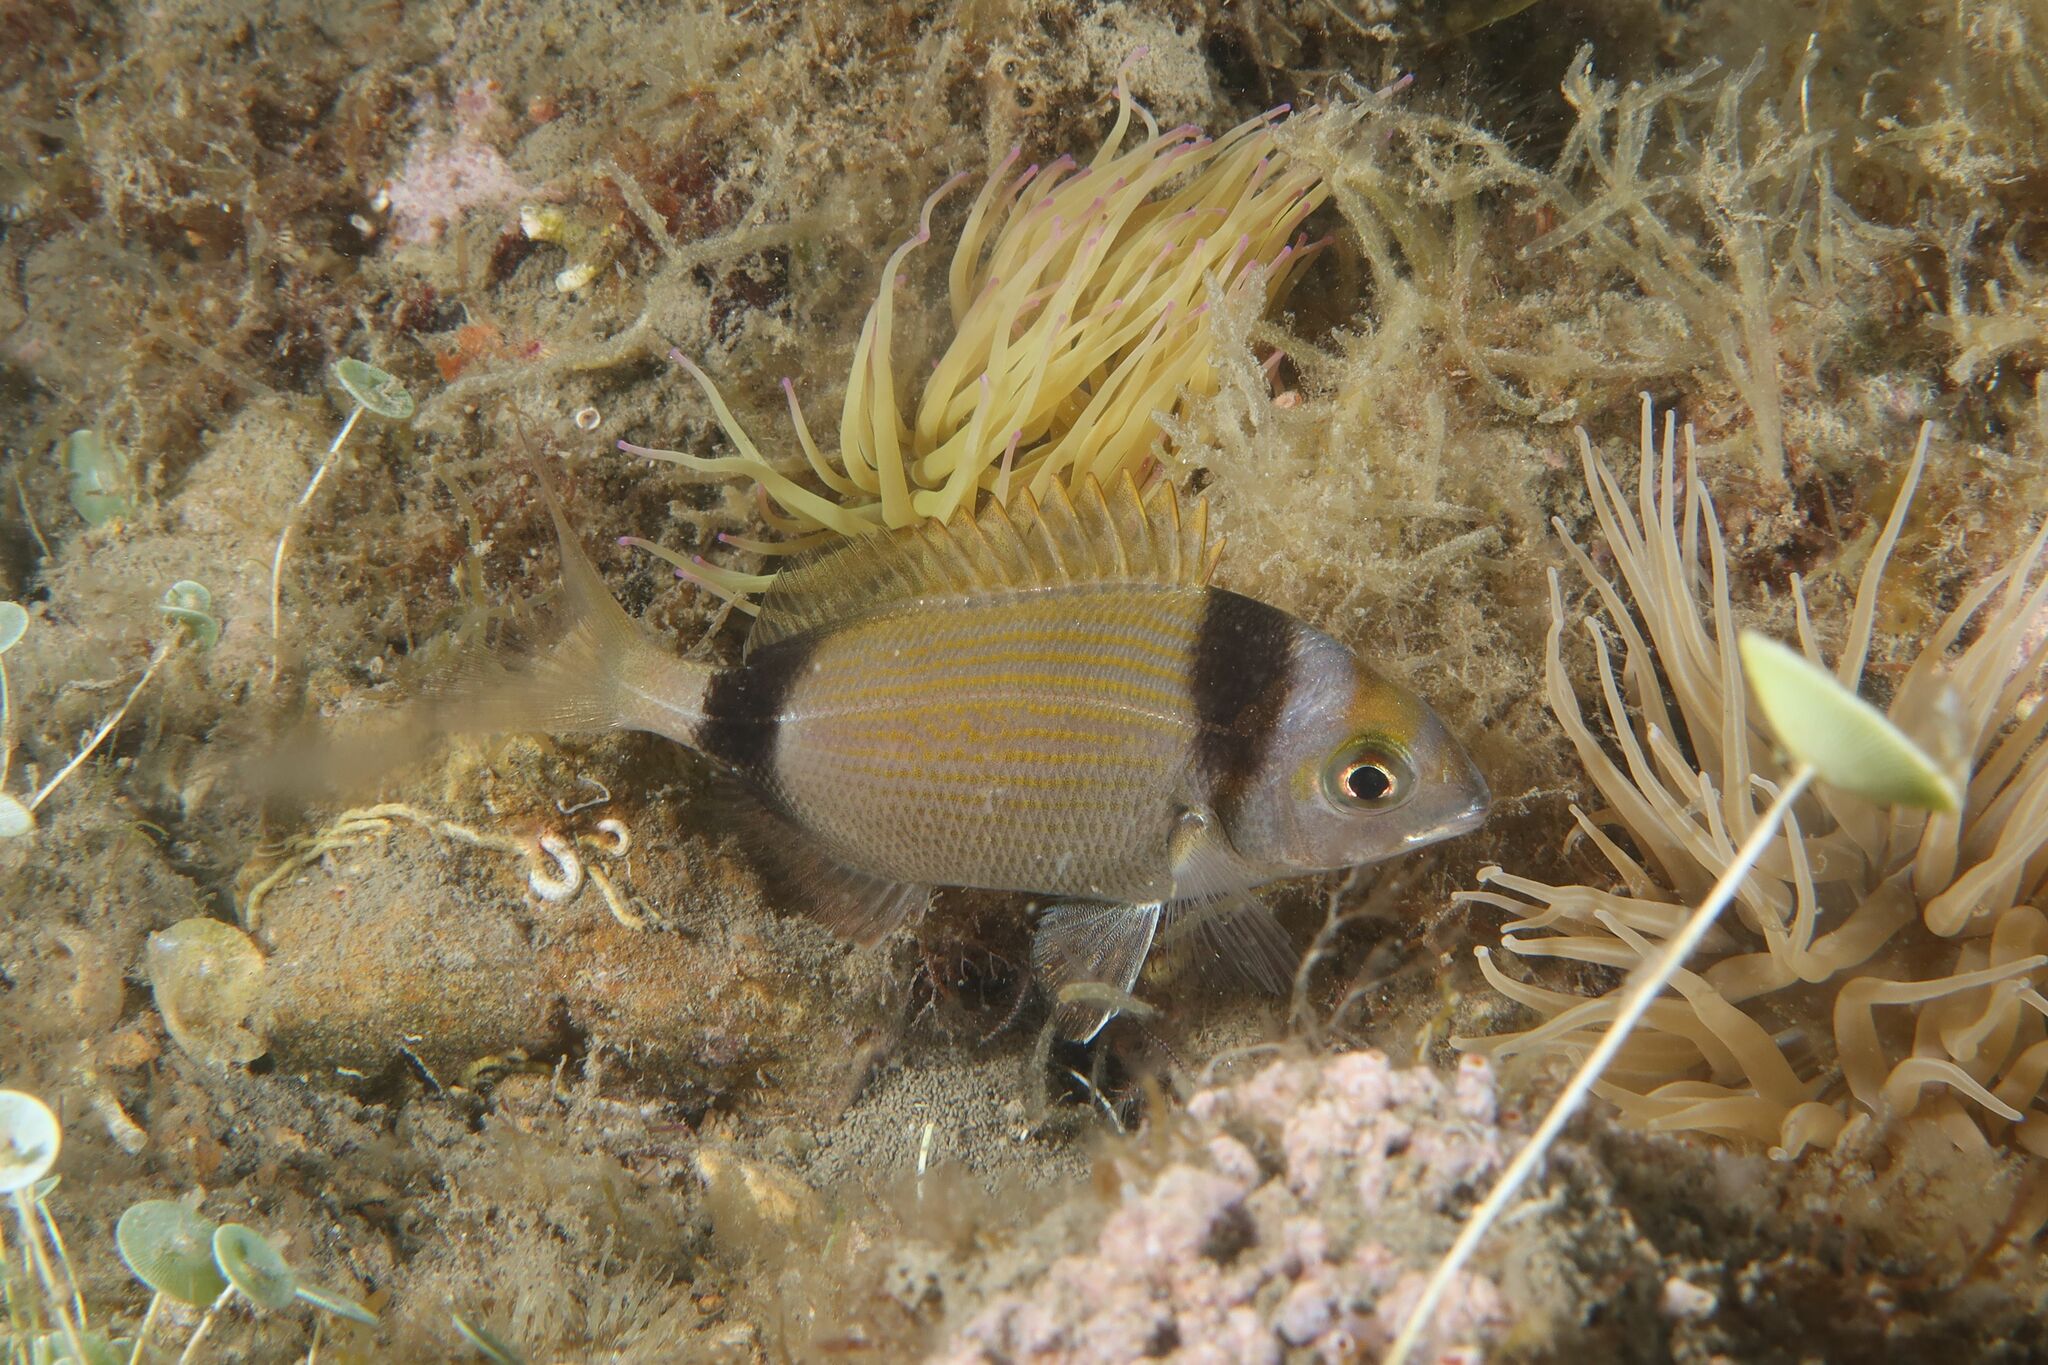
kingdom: Animalia
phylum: Chordata
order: Perciformes
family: Sparidae
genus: Diplodus
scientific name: Diplodus vulgaris
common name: Common two-banded seabream
